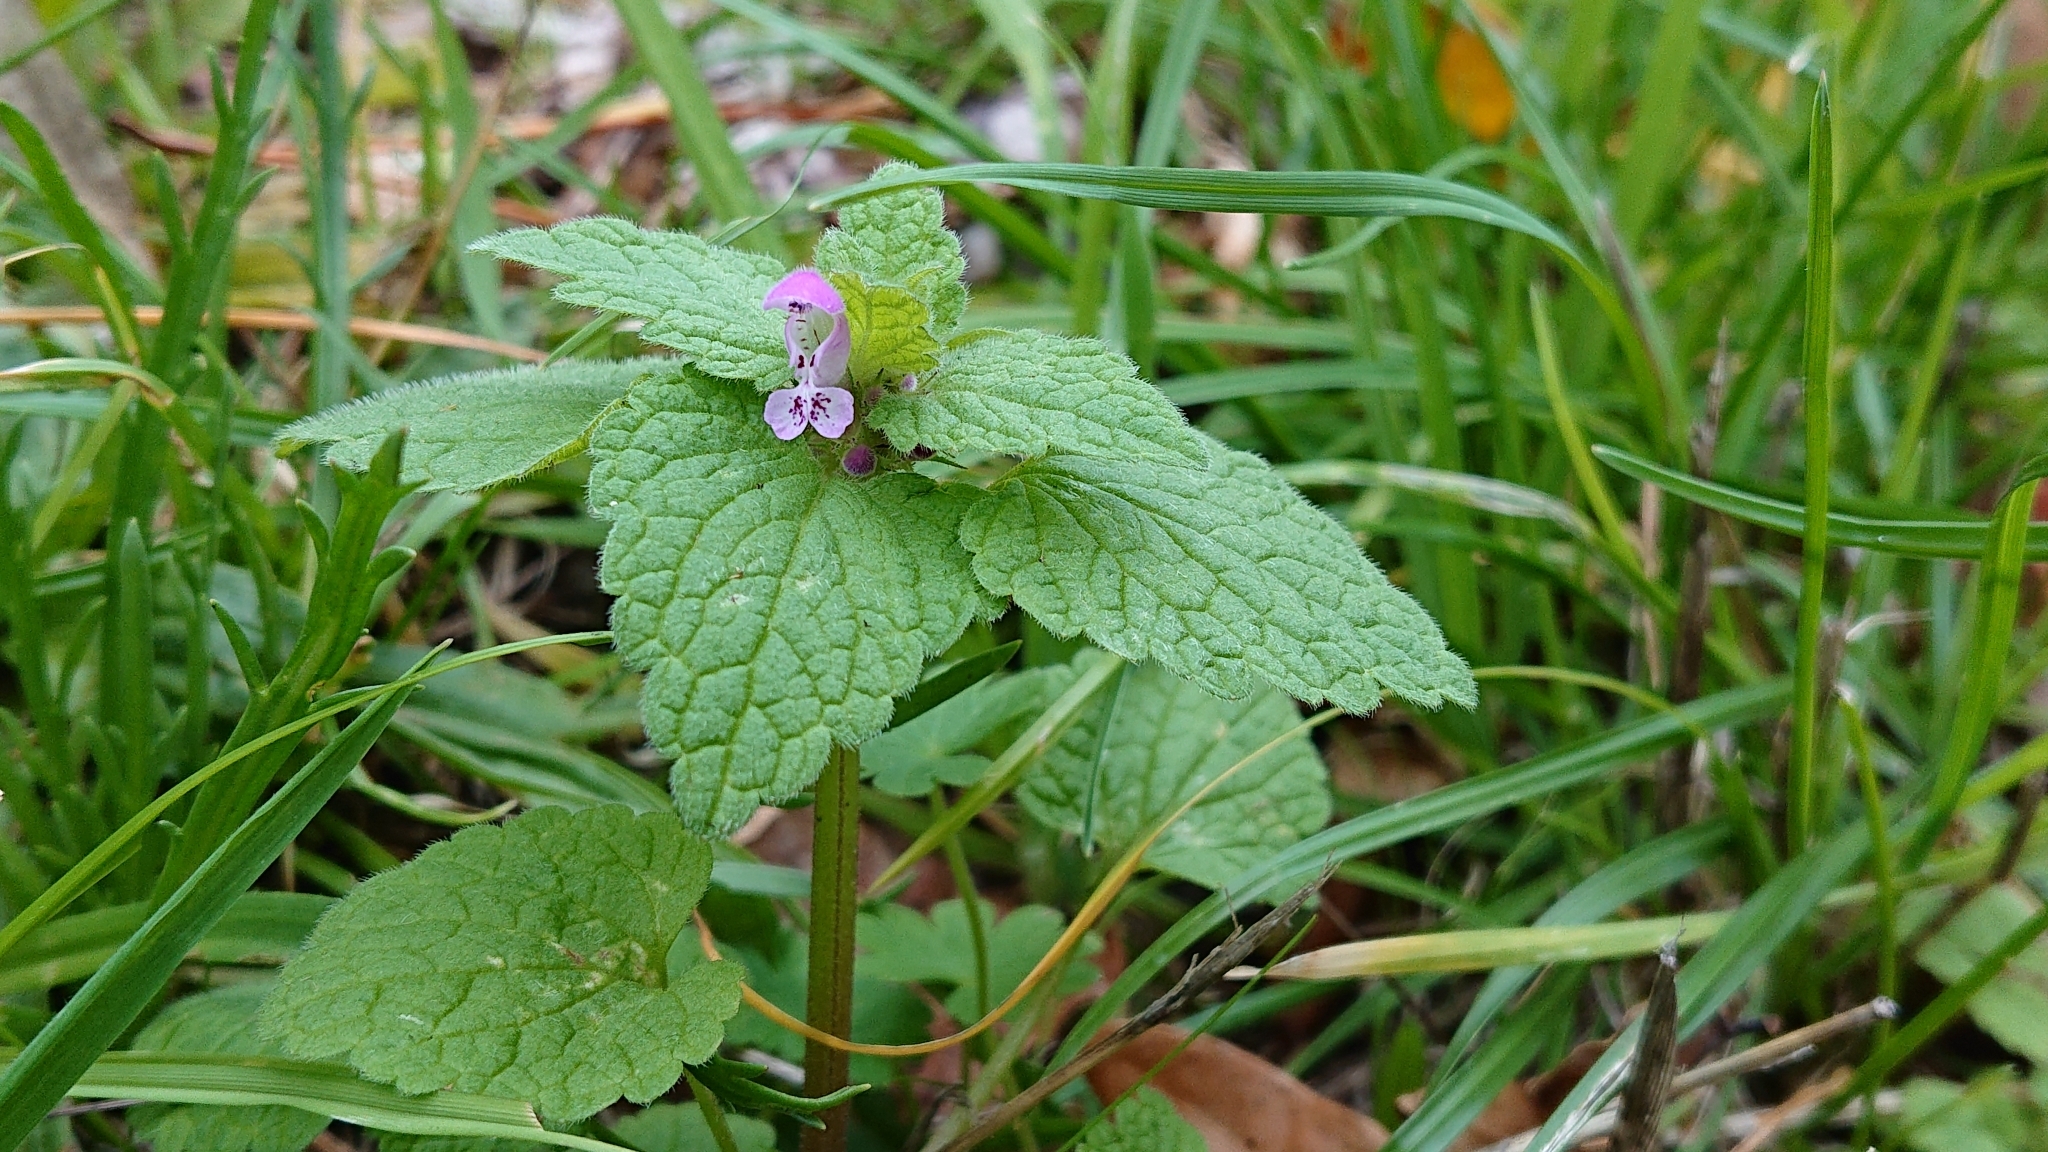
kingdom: Plantae
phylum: Tracheophyta
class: Magnoliopsida
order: Lamiales
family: Lamiaceae
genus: Lamium
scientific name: Lamium purpureum
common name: Red dead-nettle
